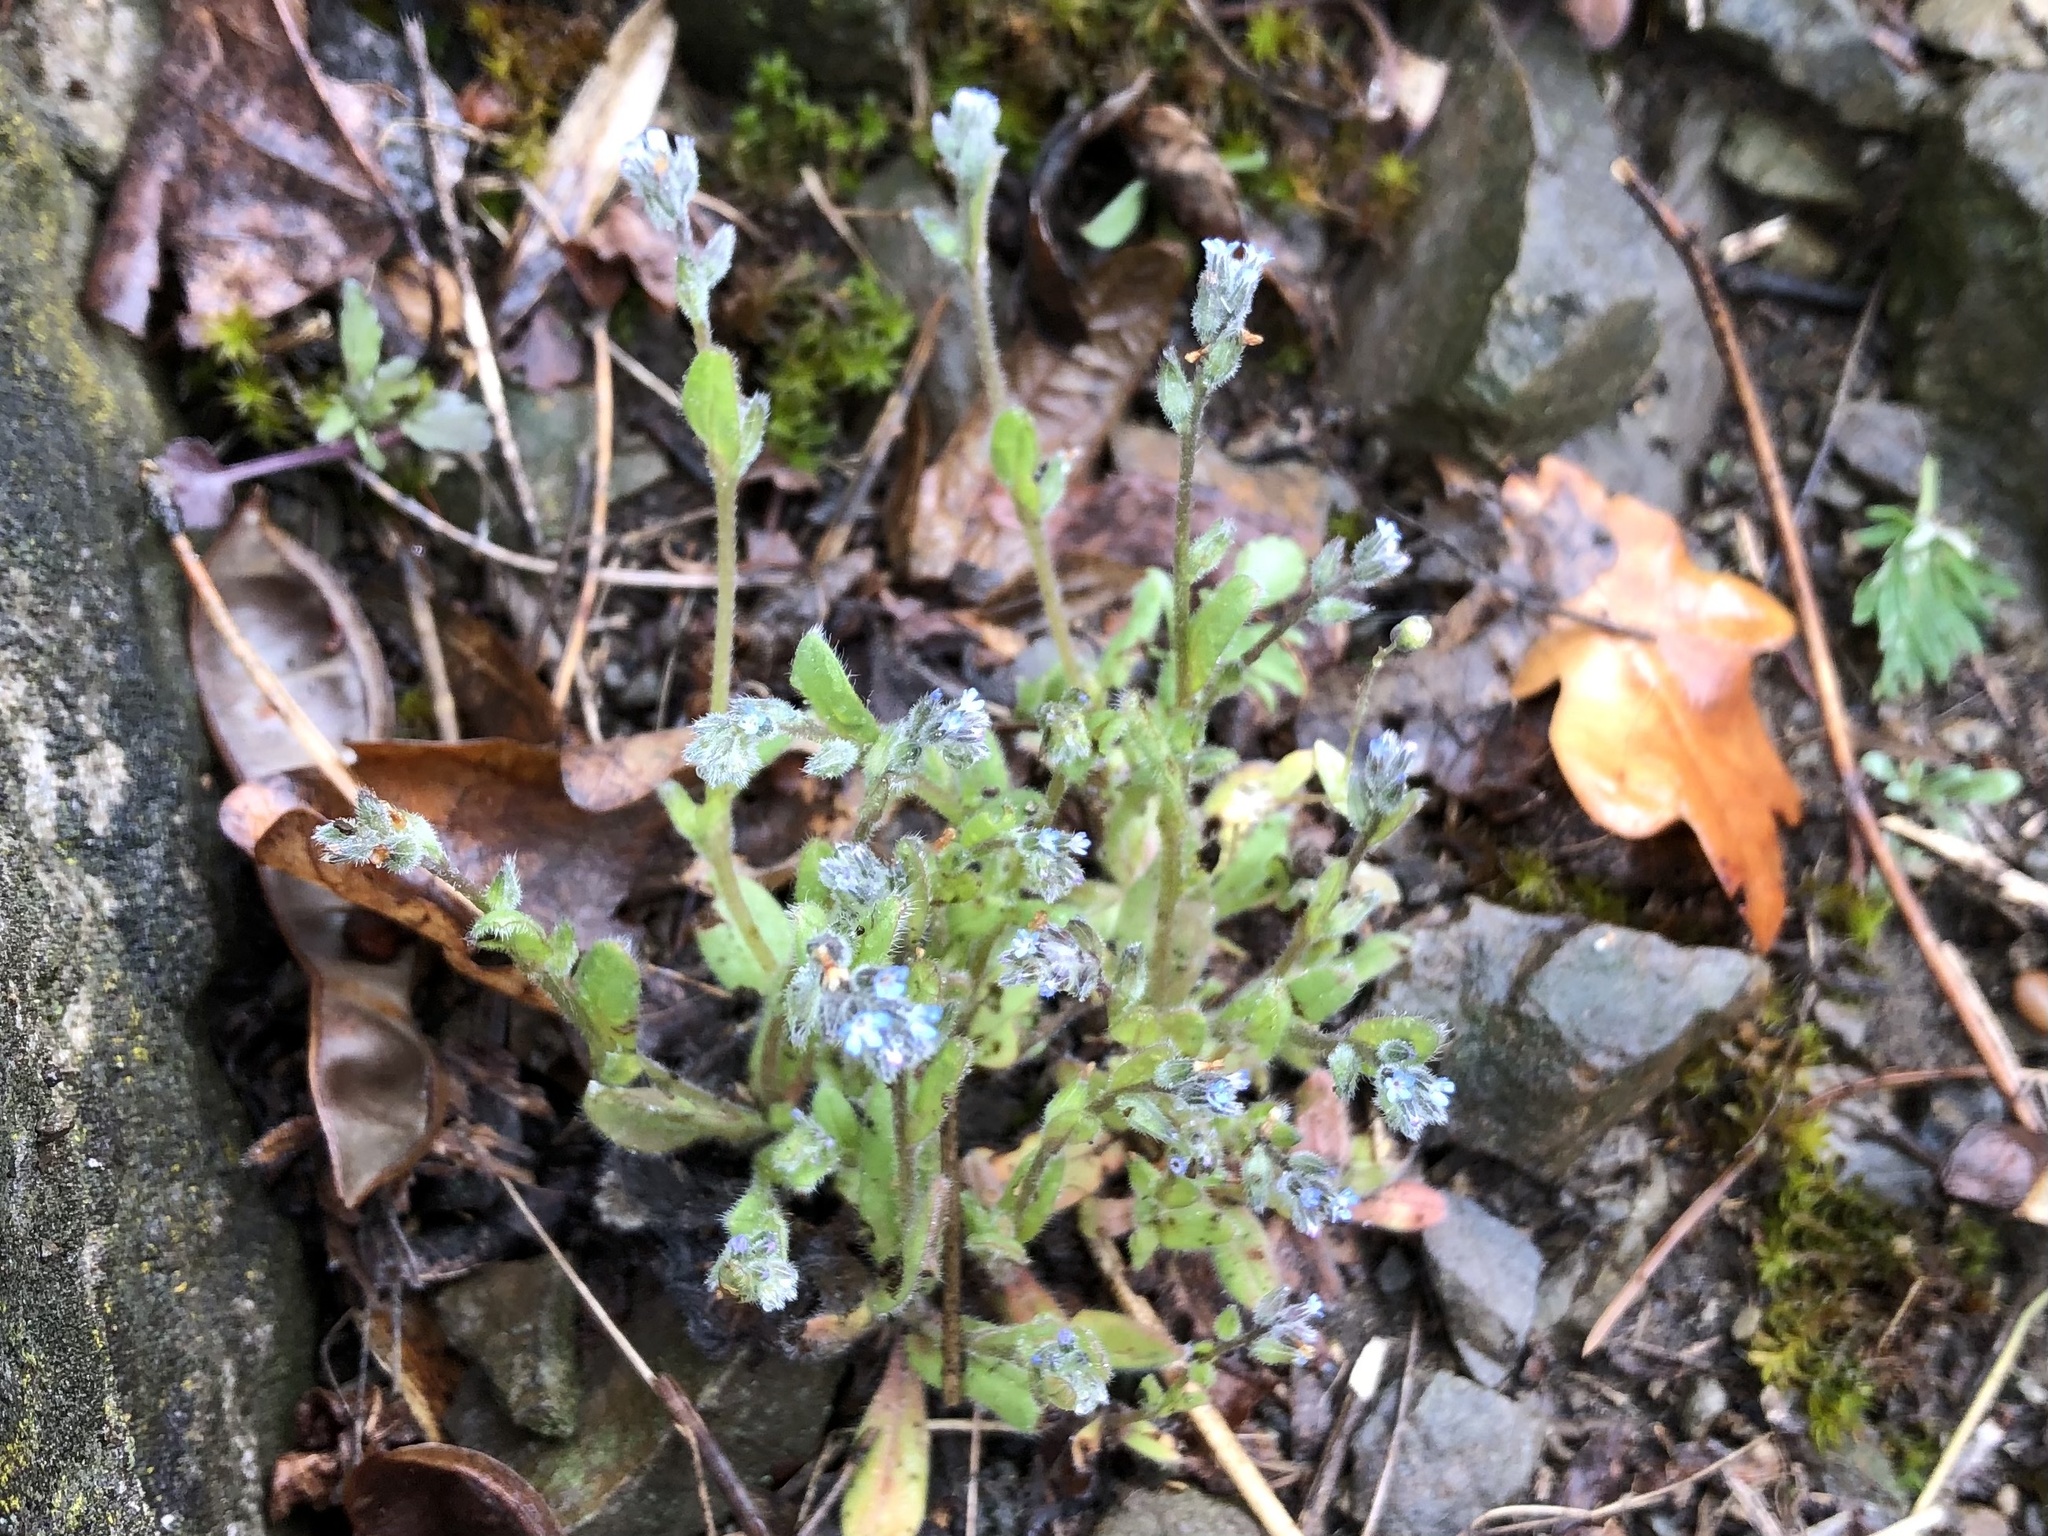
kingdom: Plantae
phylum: Tracheophyta
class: Magnoliopsida
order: Boraginales
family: Boraginaceae
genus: Myosotis
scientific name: Myosotis stricta
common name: Strict forget-me-not
